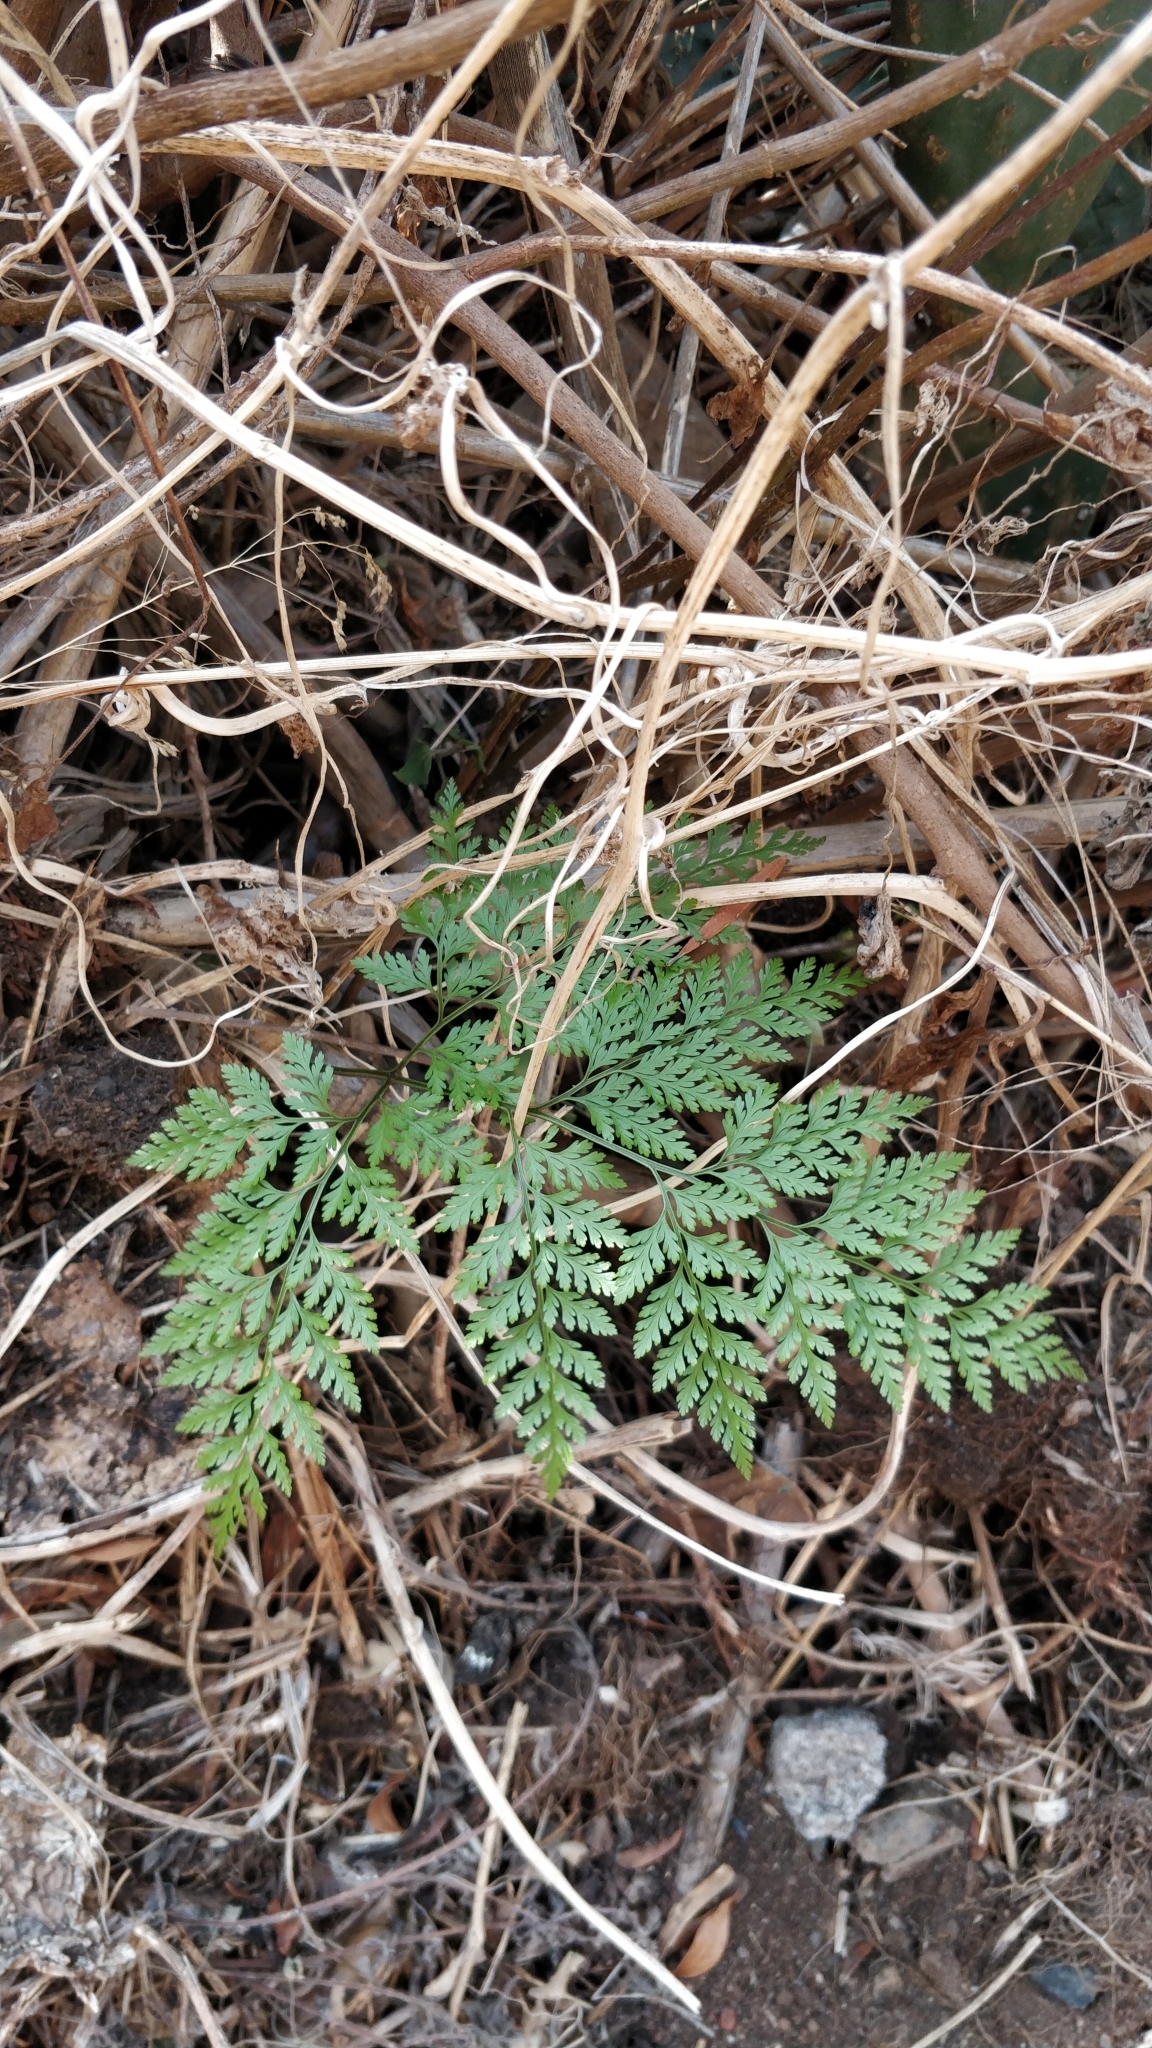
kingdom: Plantae
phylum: Tracheophyta
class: Polypodiopsida
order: Polypodiales
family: Davalliaceae
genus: Davallia
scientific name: Davallia canariensis
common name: Hare's-foot fern
